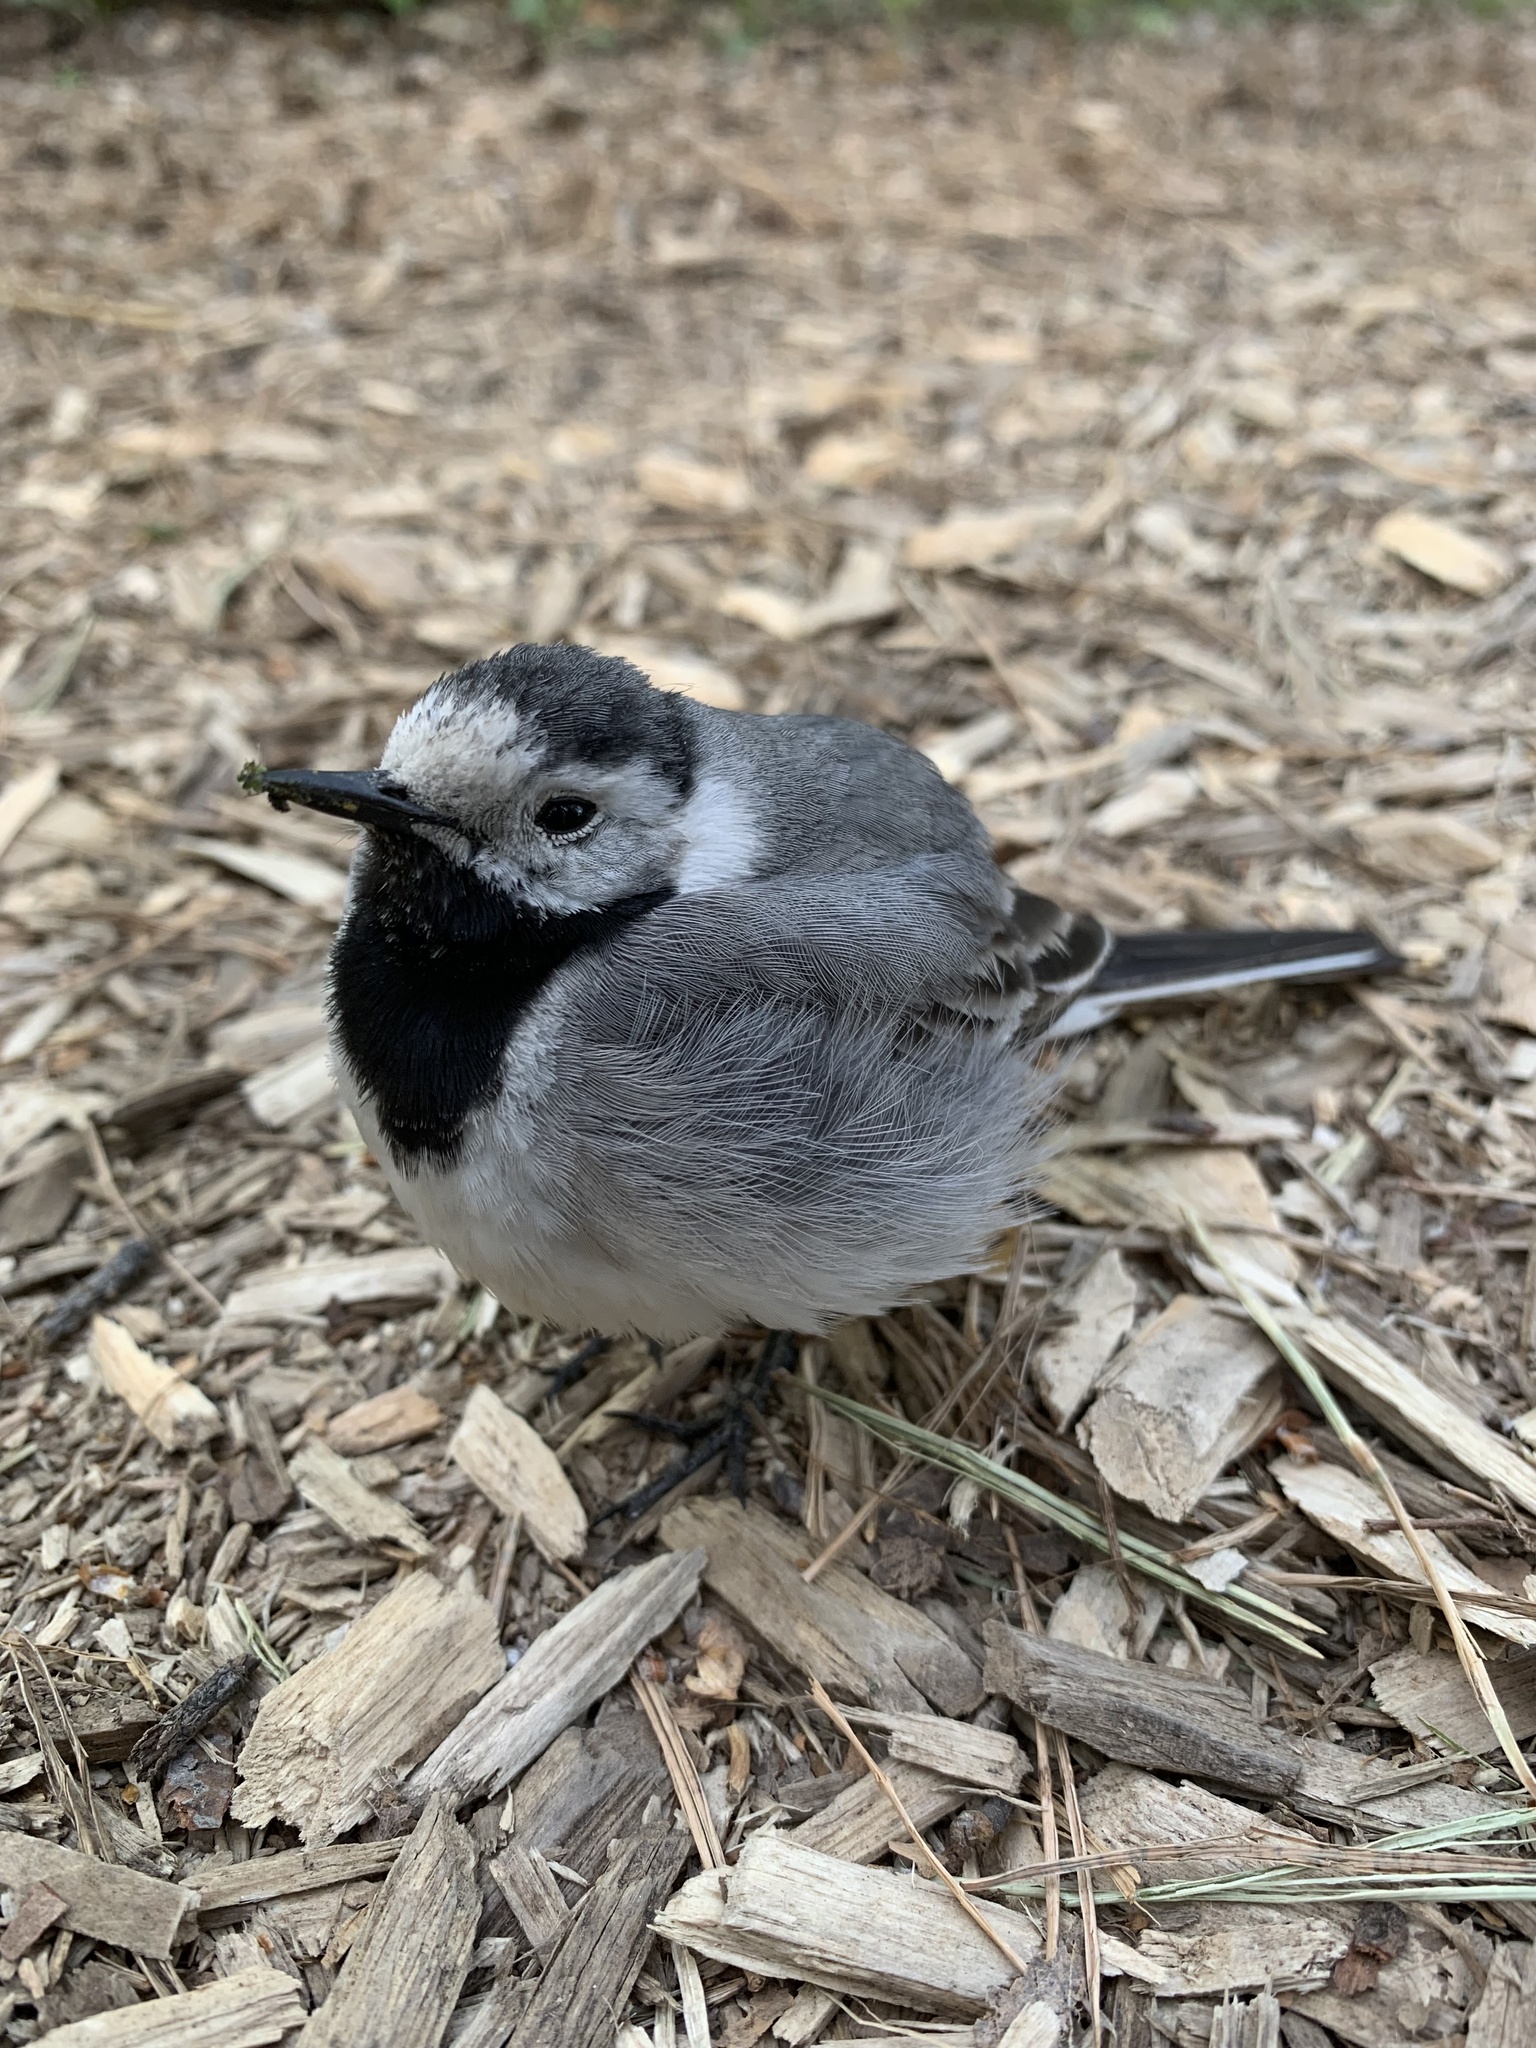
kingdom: Animalia
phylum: Chordata
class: Aves
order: Passeriformes
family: Motacillidae
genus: Motacilla
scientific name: Motacilla alba
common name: White wagtail
